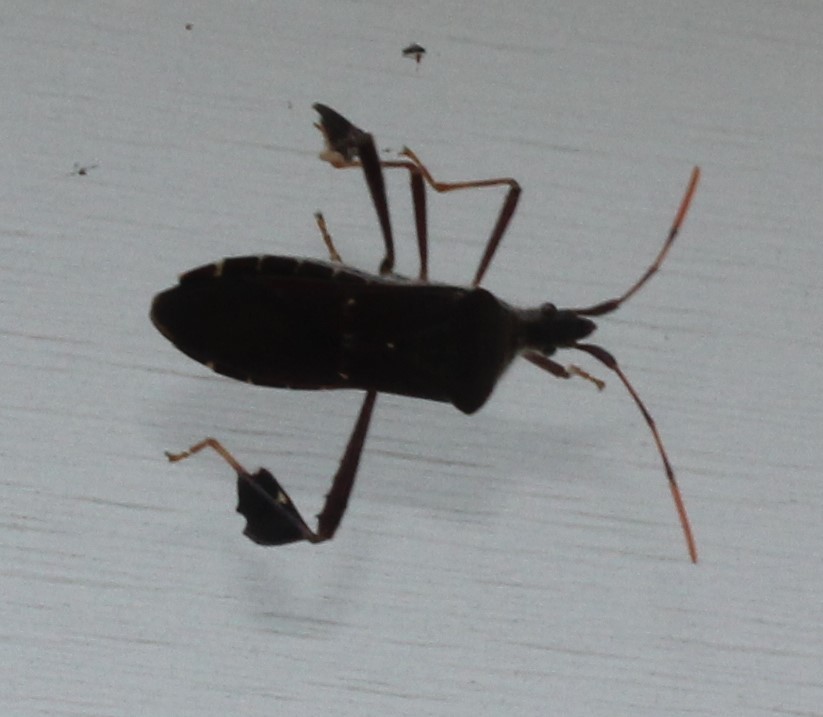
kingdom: Animalia
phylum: Arthropoda
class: Insecta
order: Hemiptera
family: Coreidae
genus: Leptoglossus
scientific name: Leptoglossus oppositus
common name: Northern leaf-footed bug
